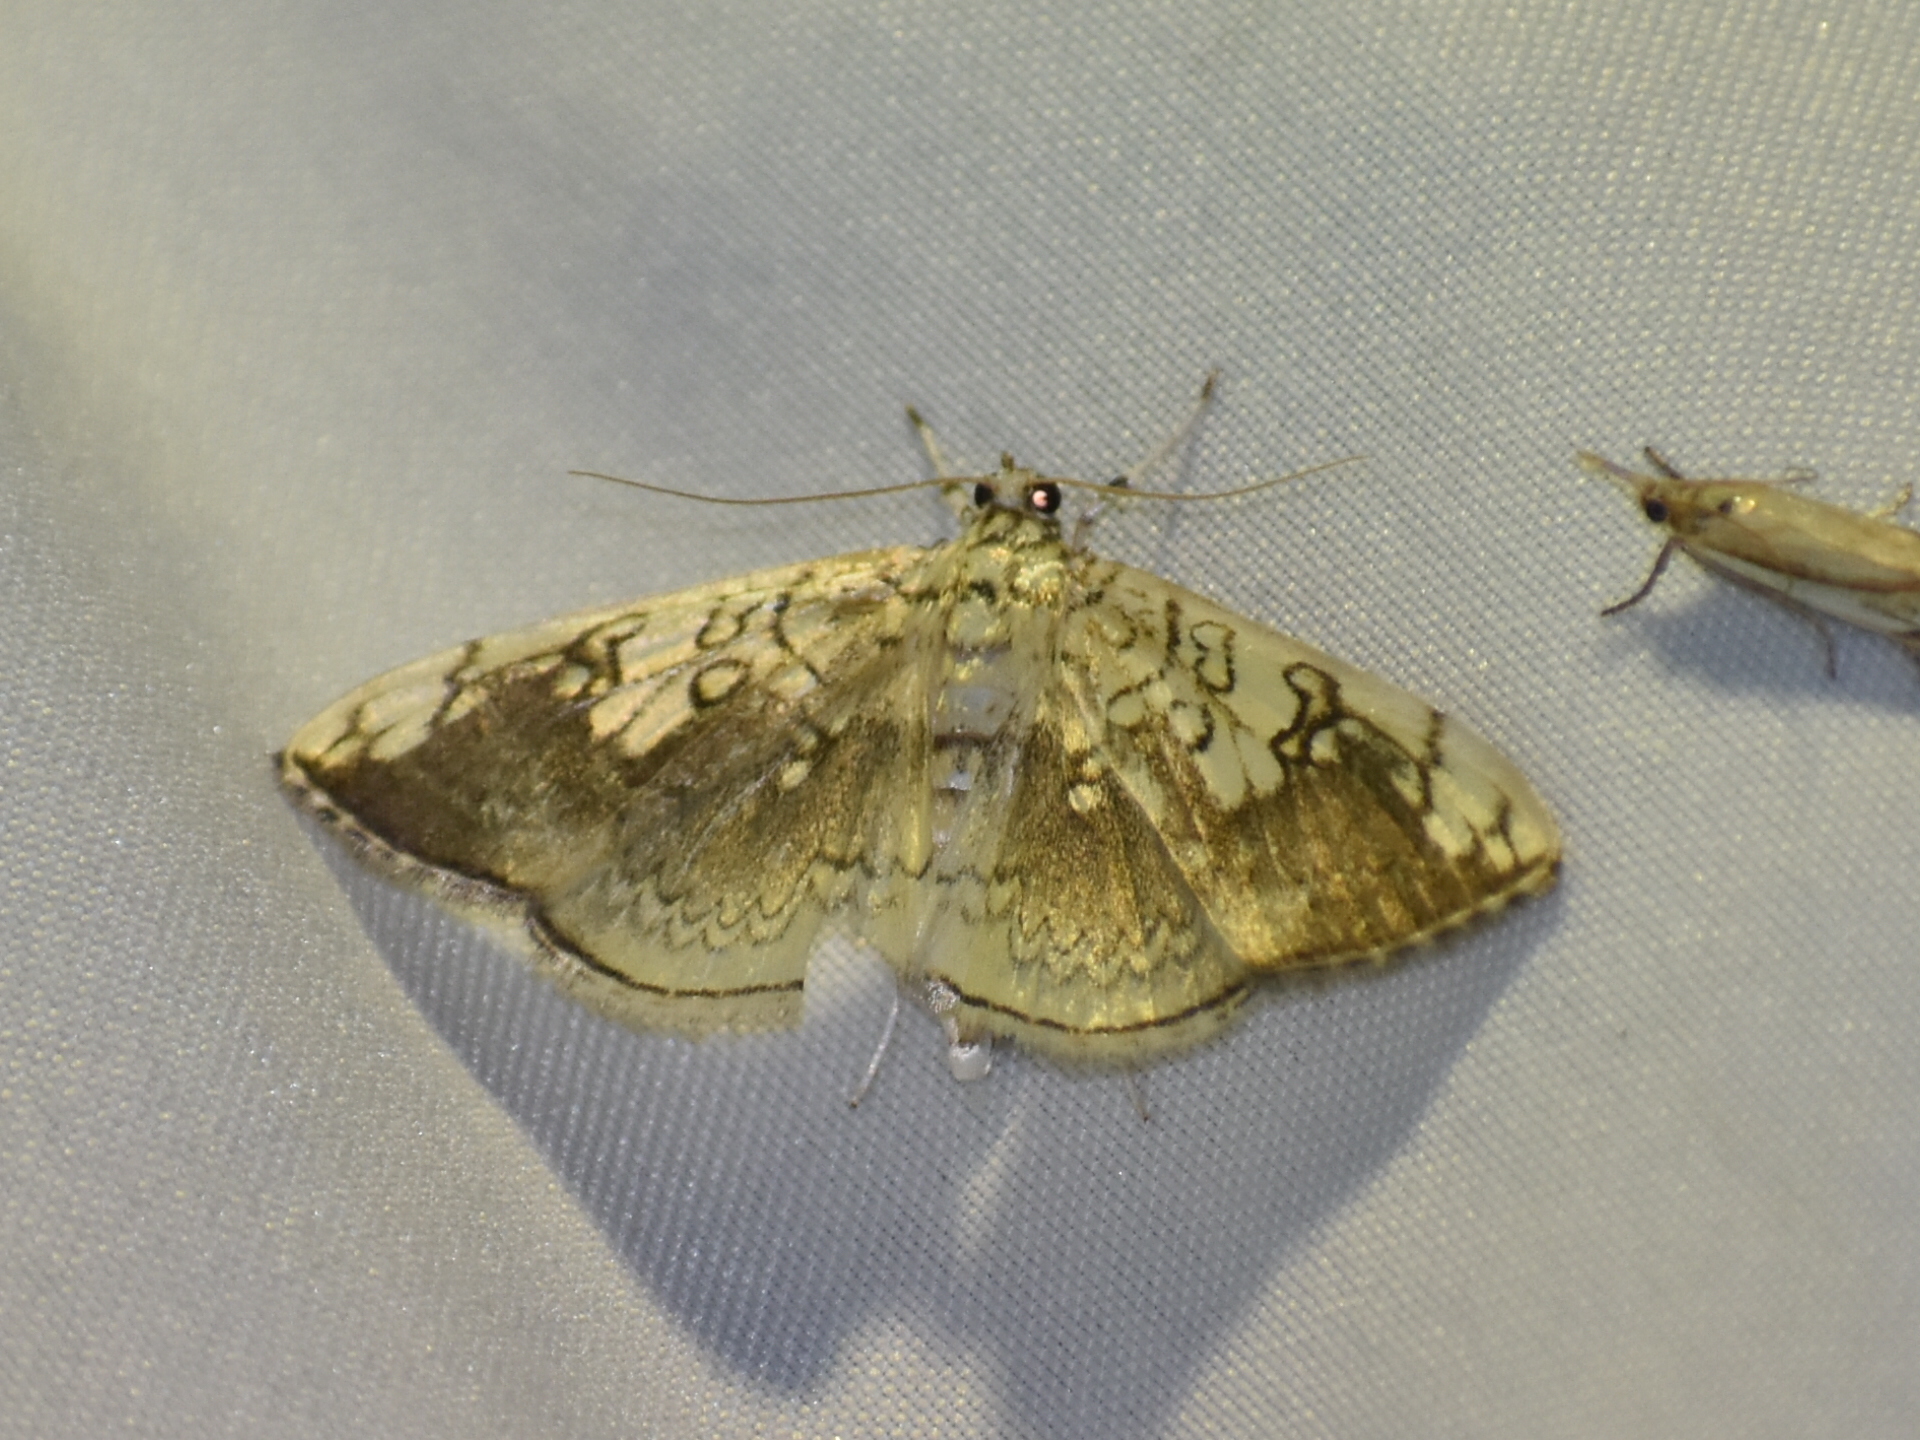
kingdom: Animalia
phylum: Arthropoda
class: Insecta
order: Lepidoptera
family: Crambidae
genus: Pantographa
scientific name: Pantographa limata
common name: Basswood leafroller moth
